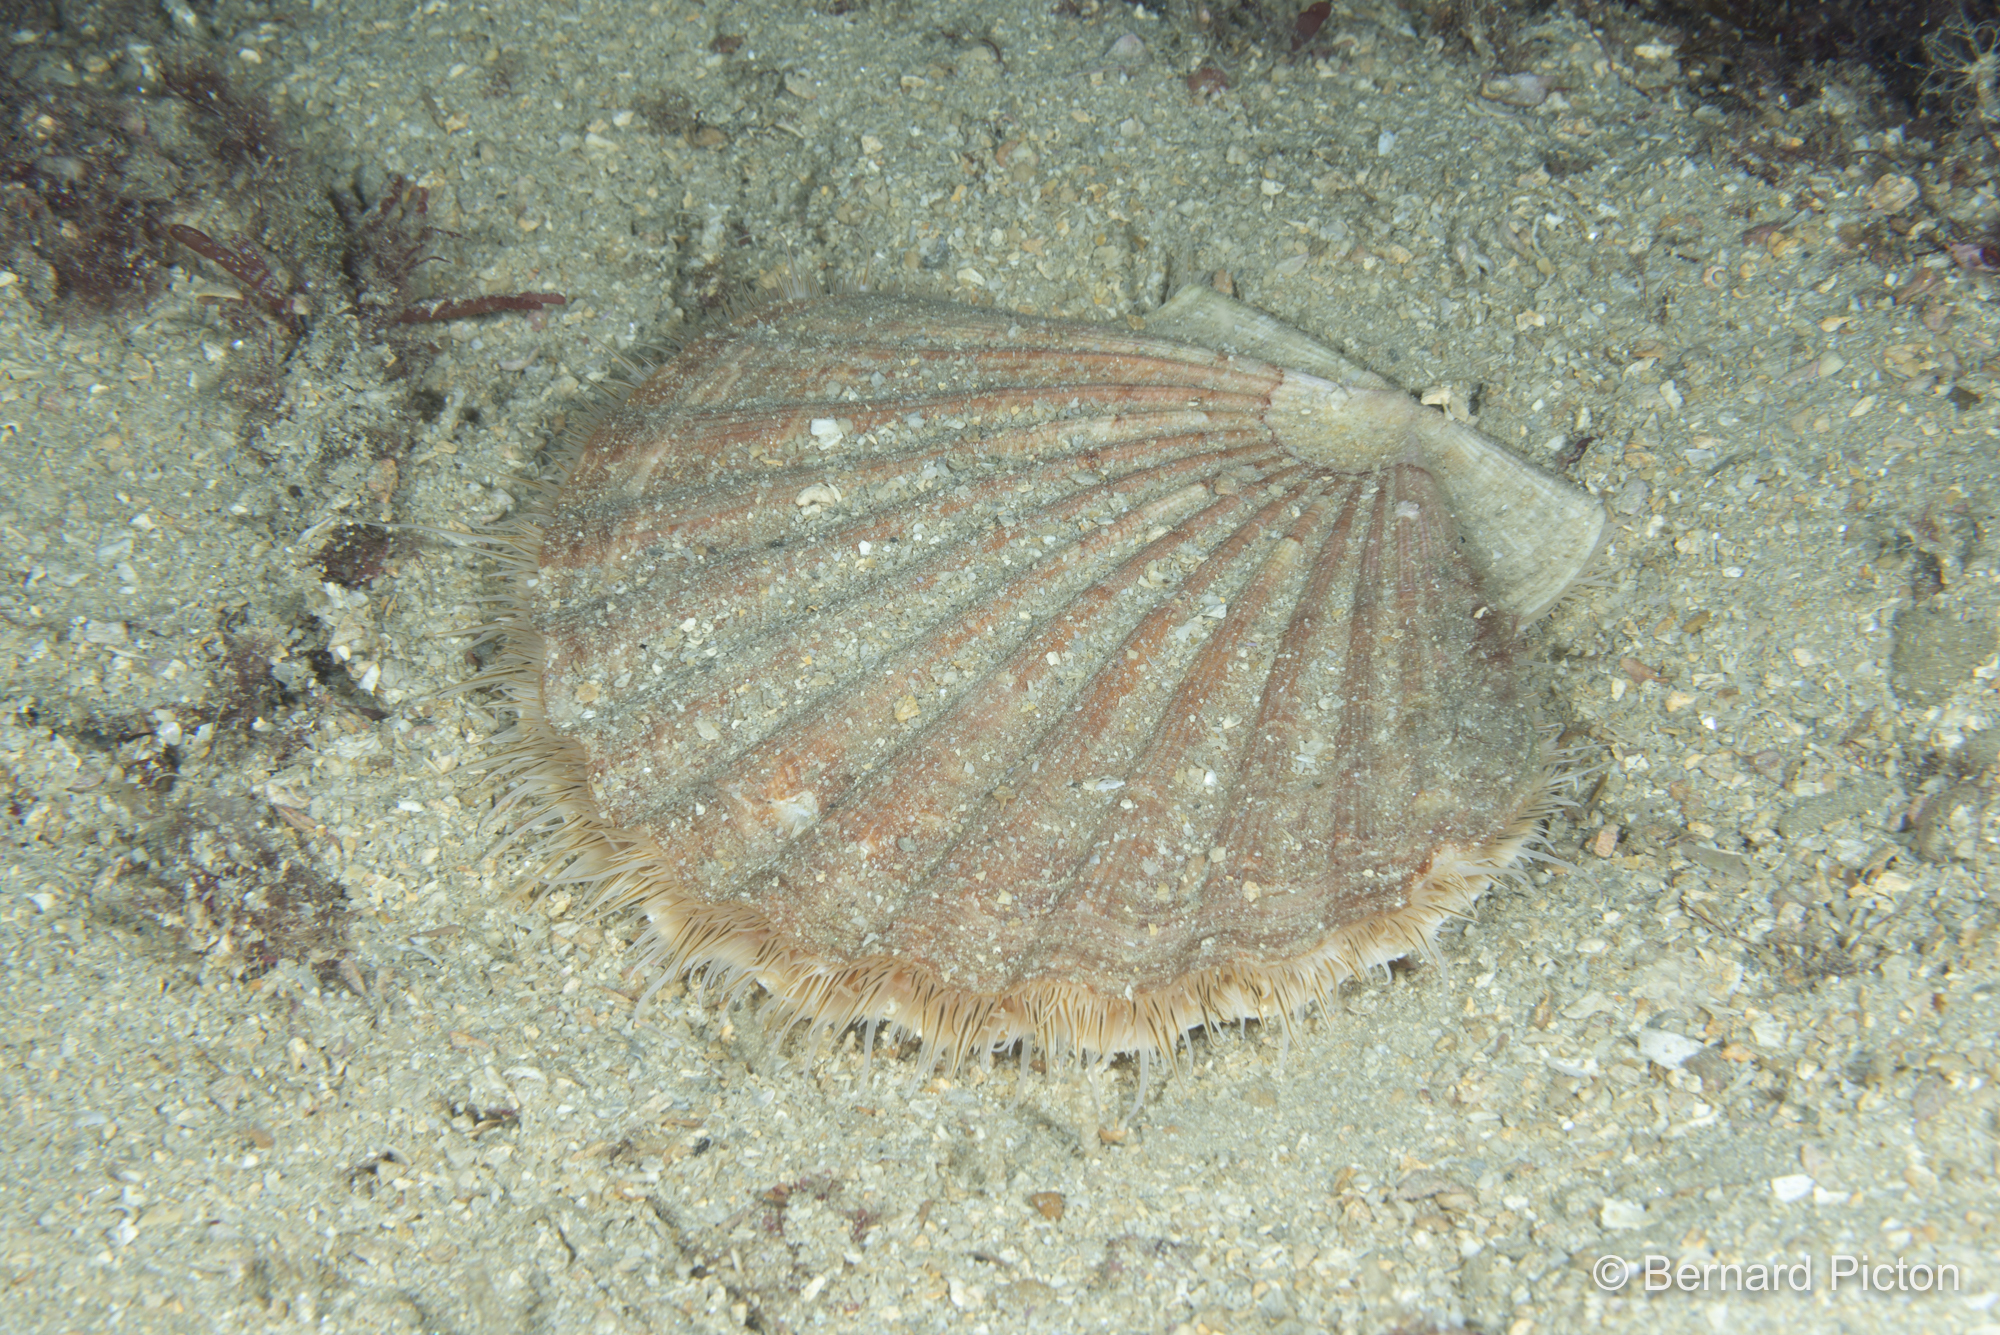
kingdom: Animalia
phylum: Mollusca
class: Bivalvia
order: Pectinida
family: Pectinidae
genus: Pecten
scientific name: Pecten maximus
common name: Great scallop
